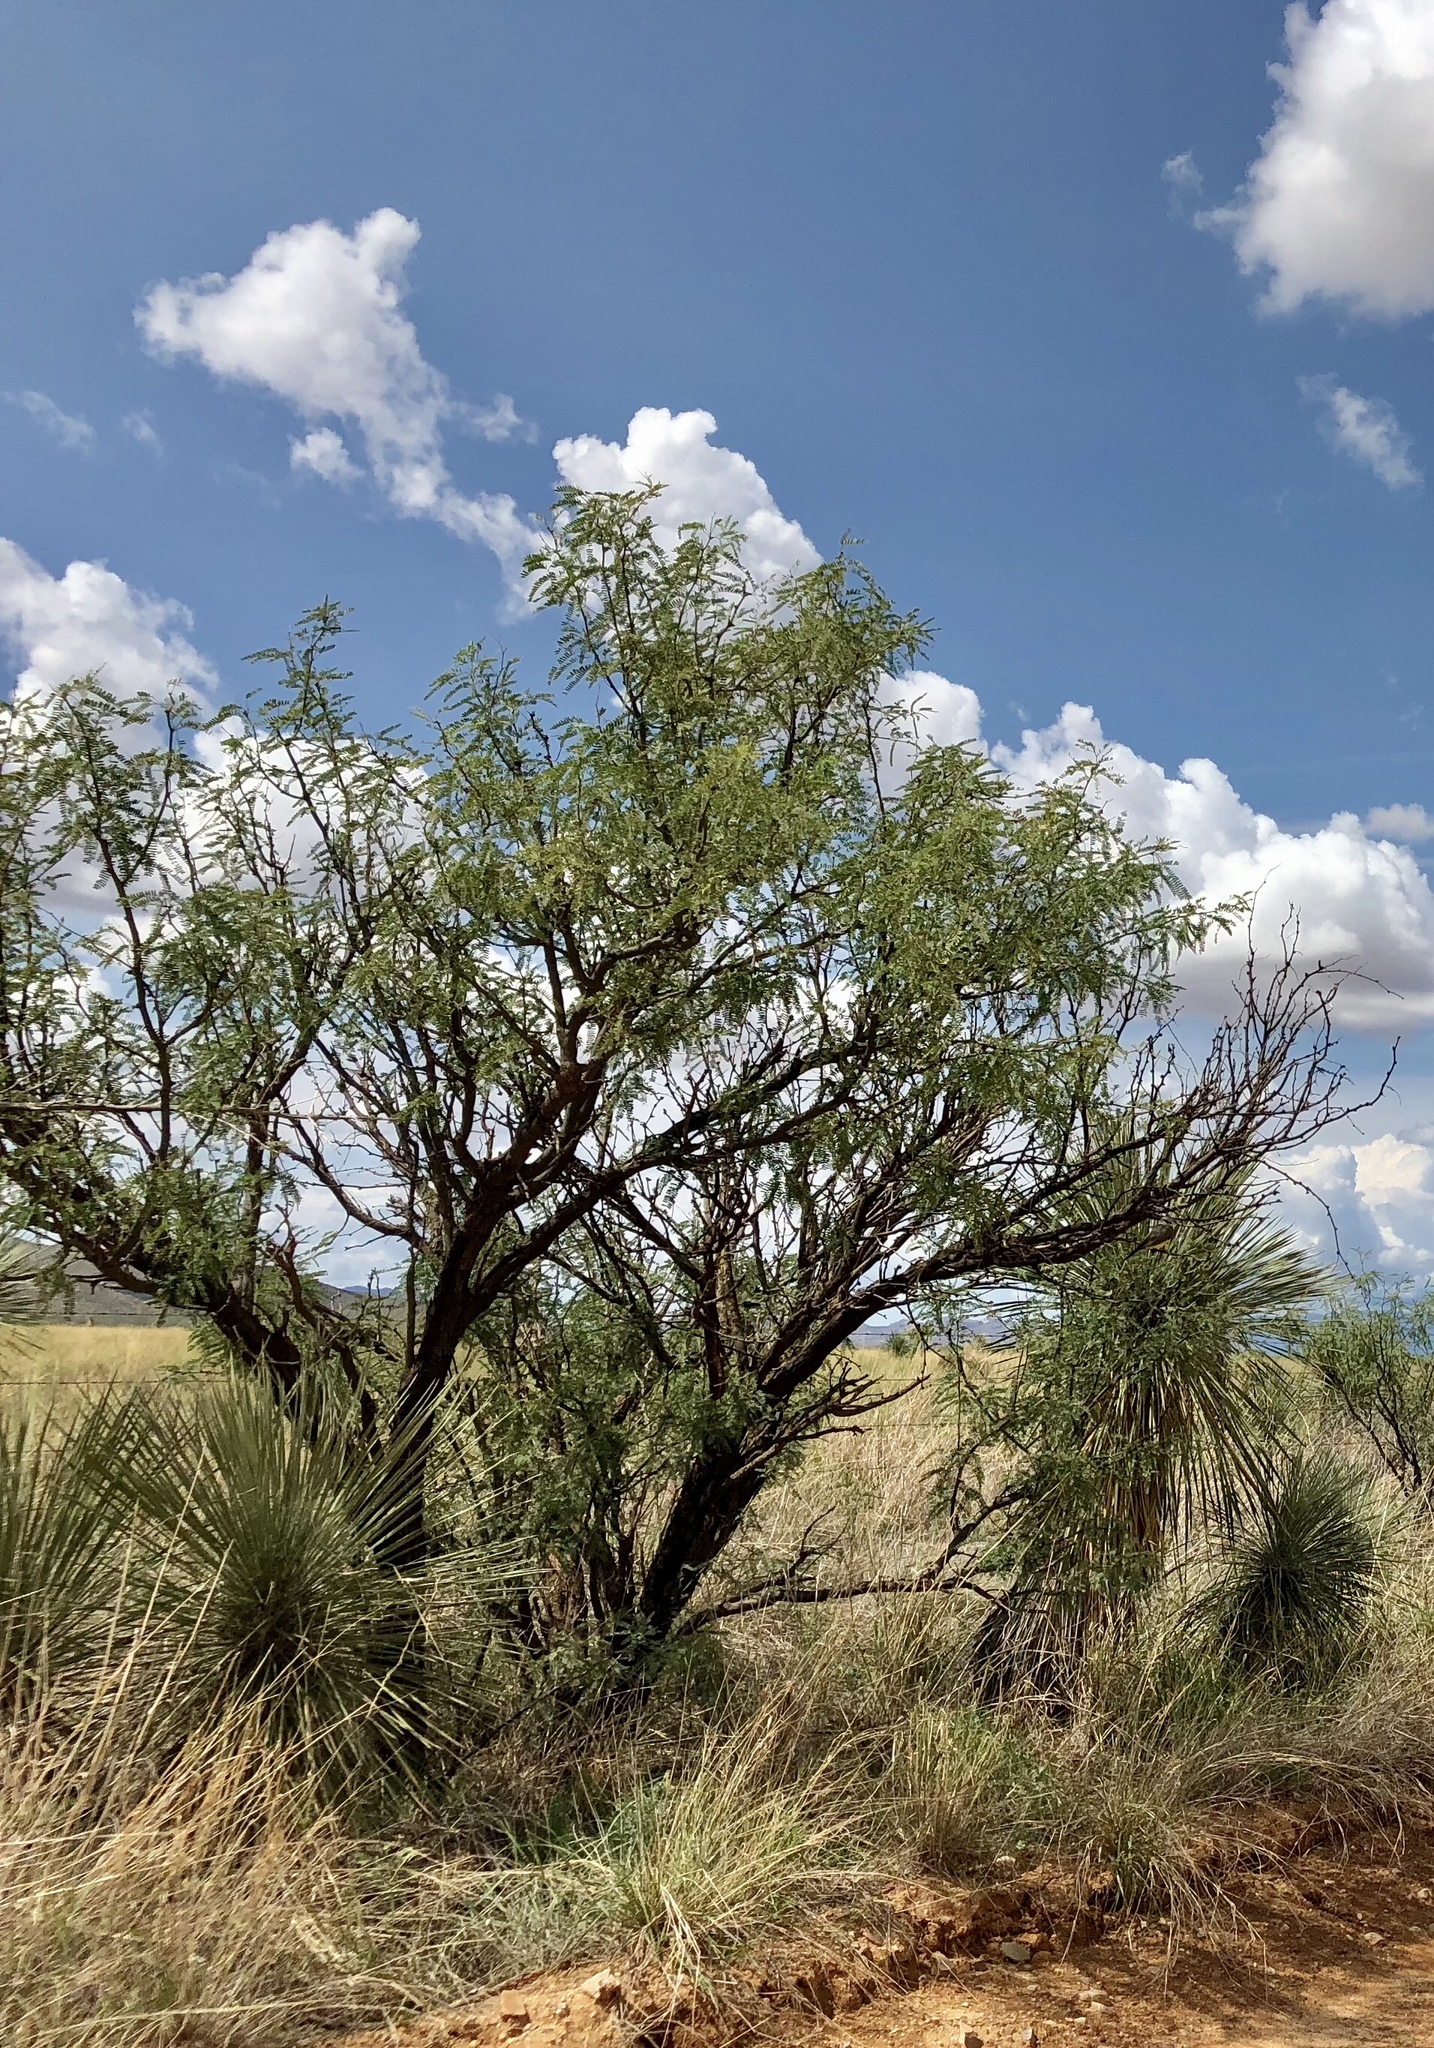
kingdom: Plantae
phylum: Tracheophyta
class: Magnoliopsida
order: Fabales
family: Fabaceae
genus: Prosopis
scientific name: Prosopis glandulosa
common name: Honey mesquite
